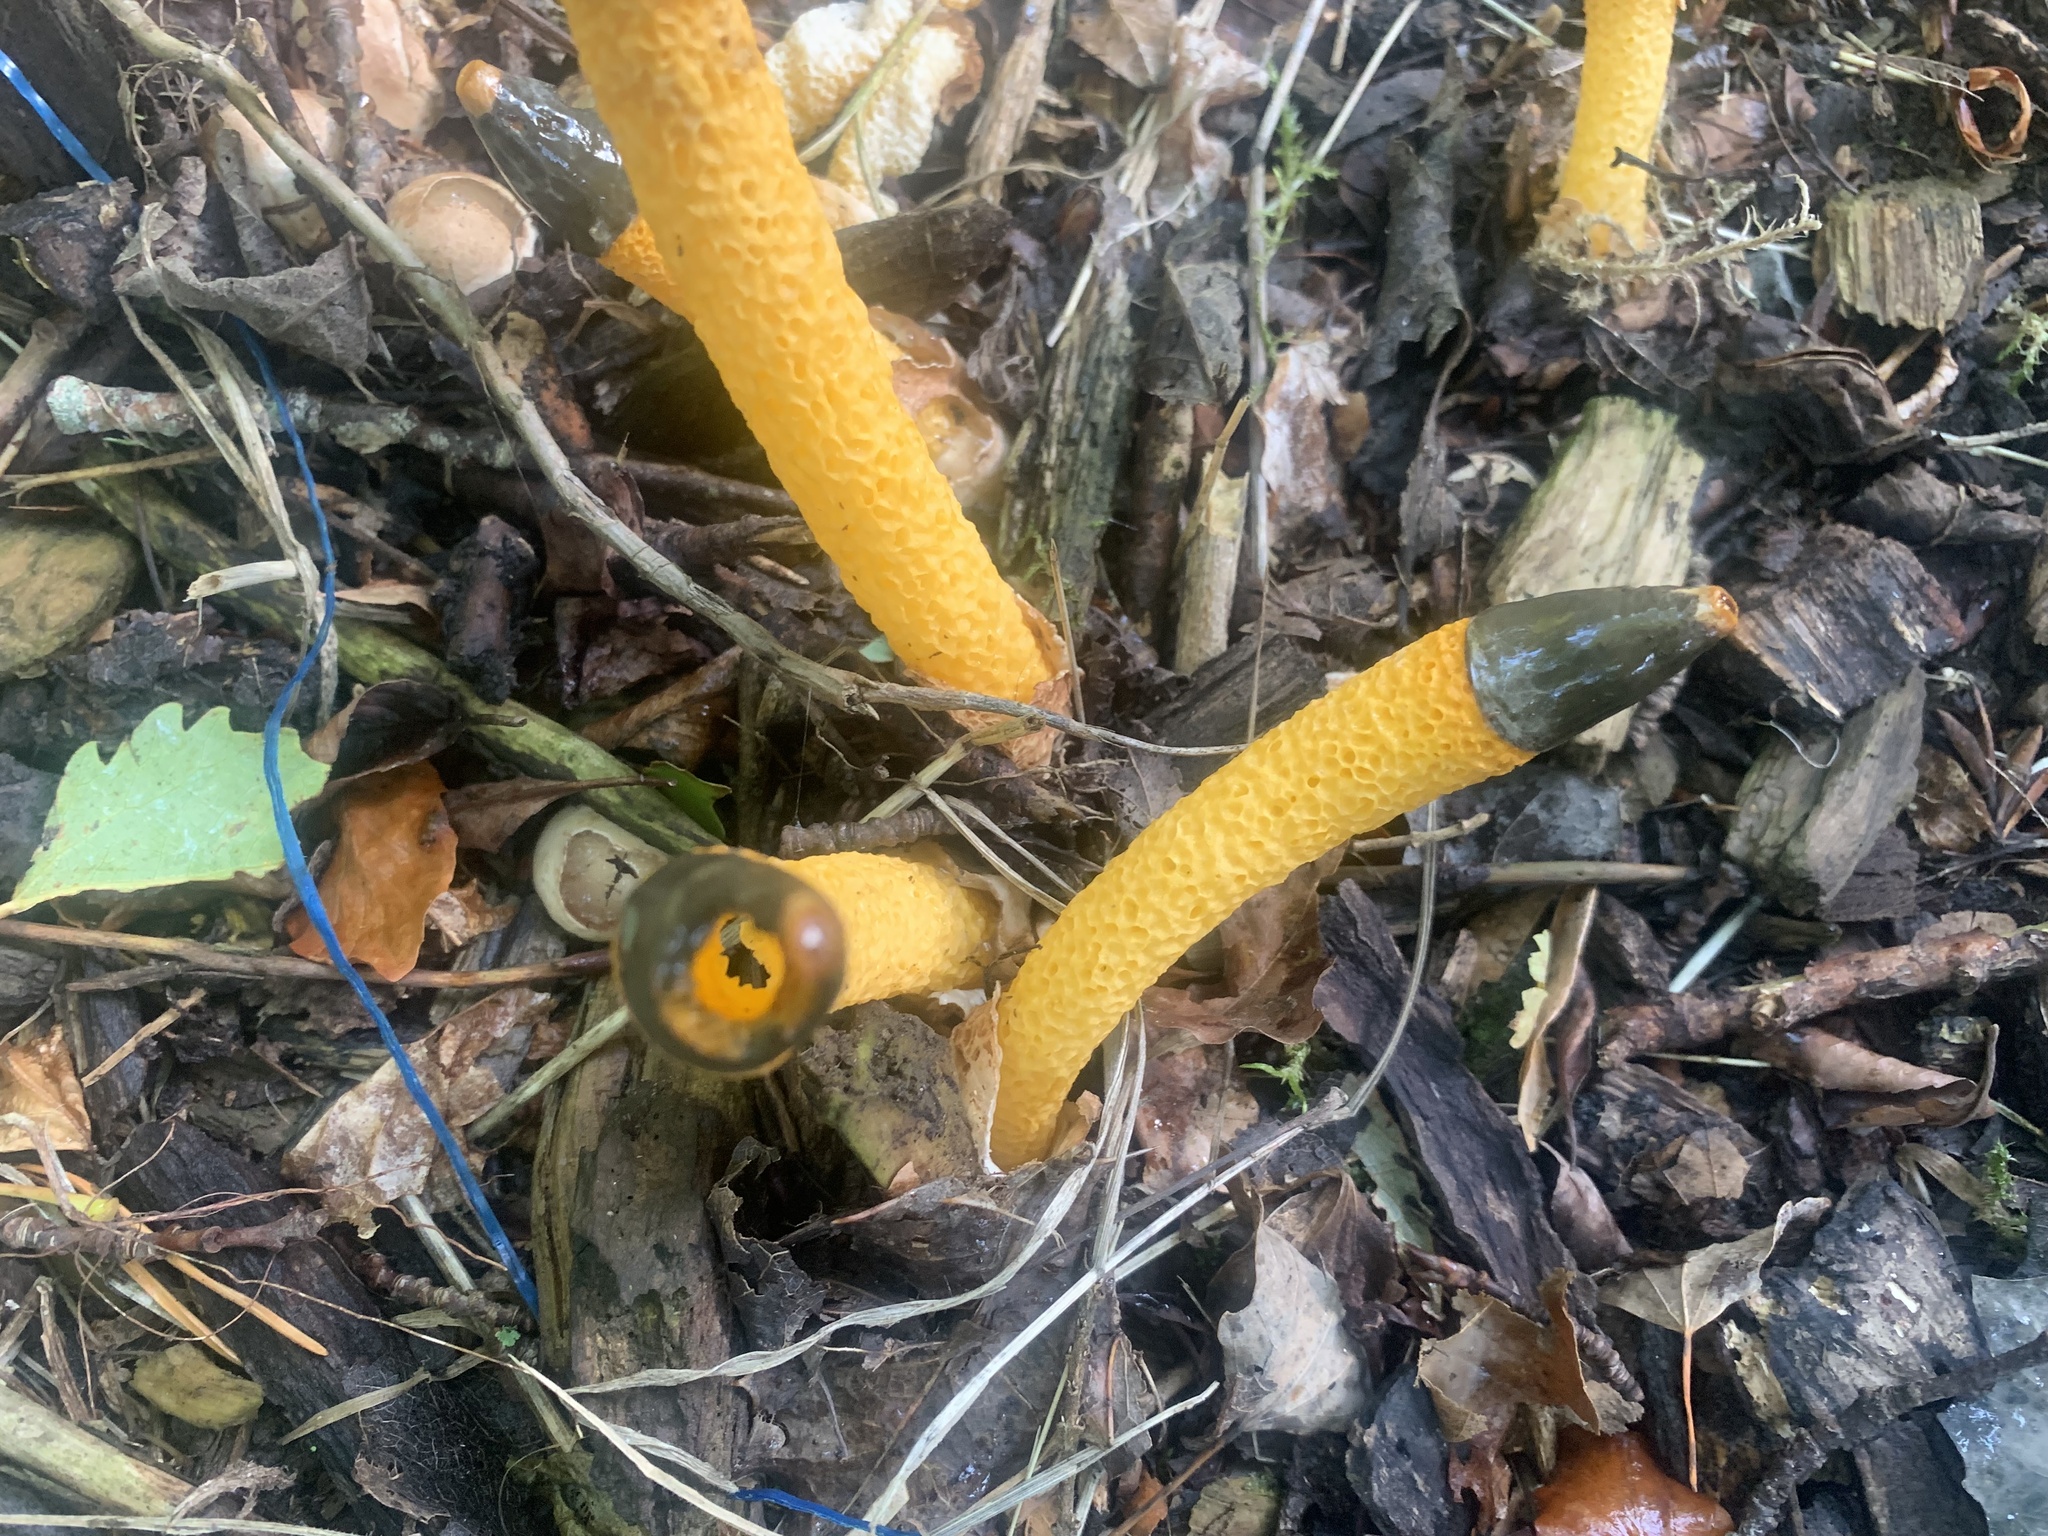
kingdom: Fungi
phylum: Basidiomycota
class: Agaricomycetes
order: Phallales
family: Phallaceae
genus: Mutinus
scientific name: Mutinus caninus
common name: Dog stinkhorn
